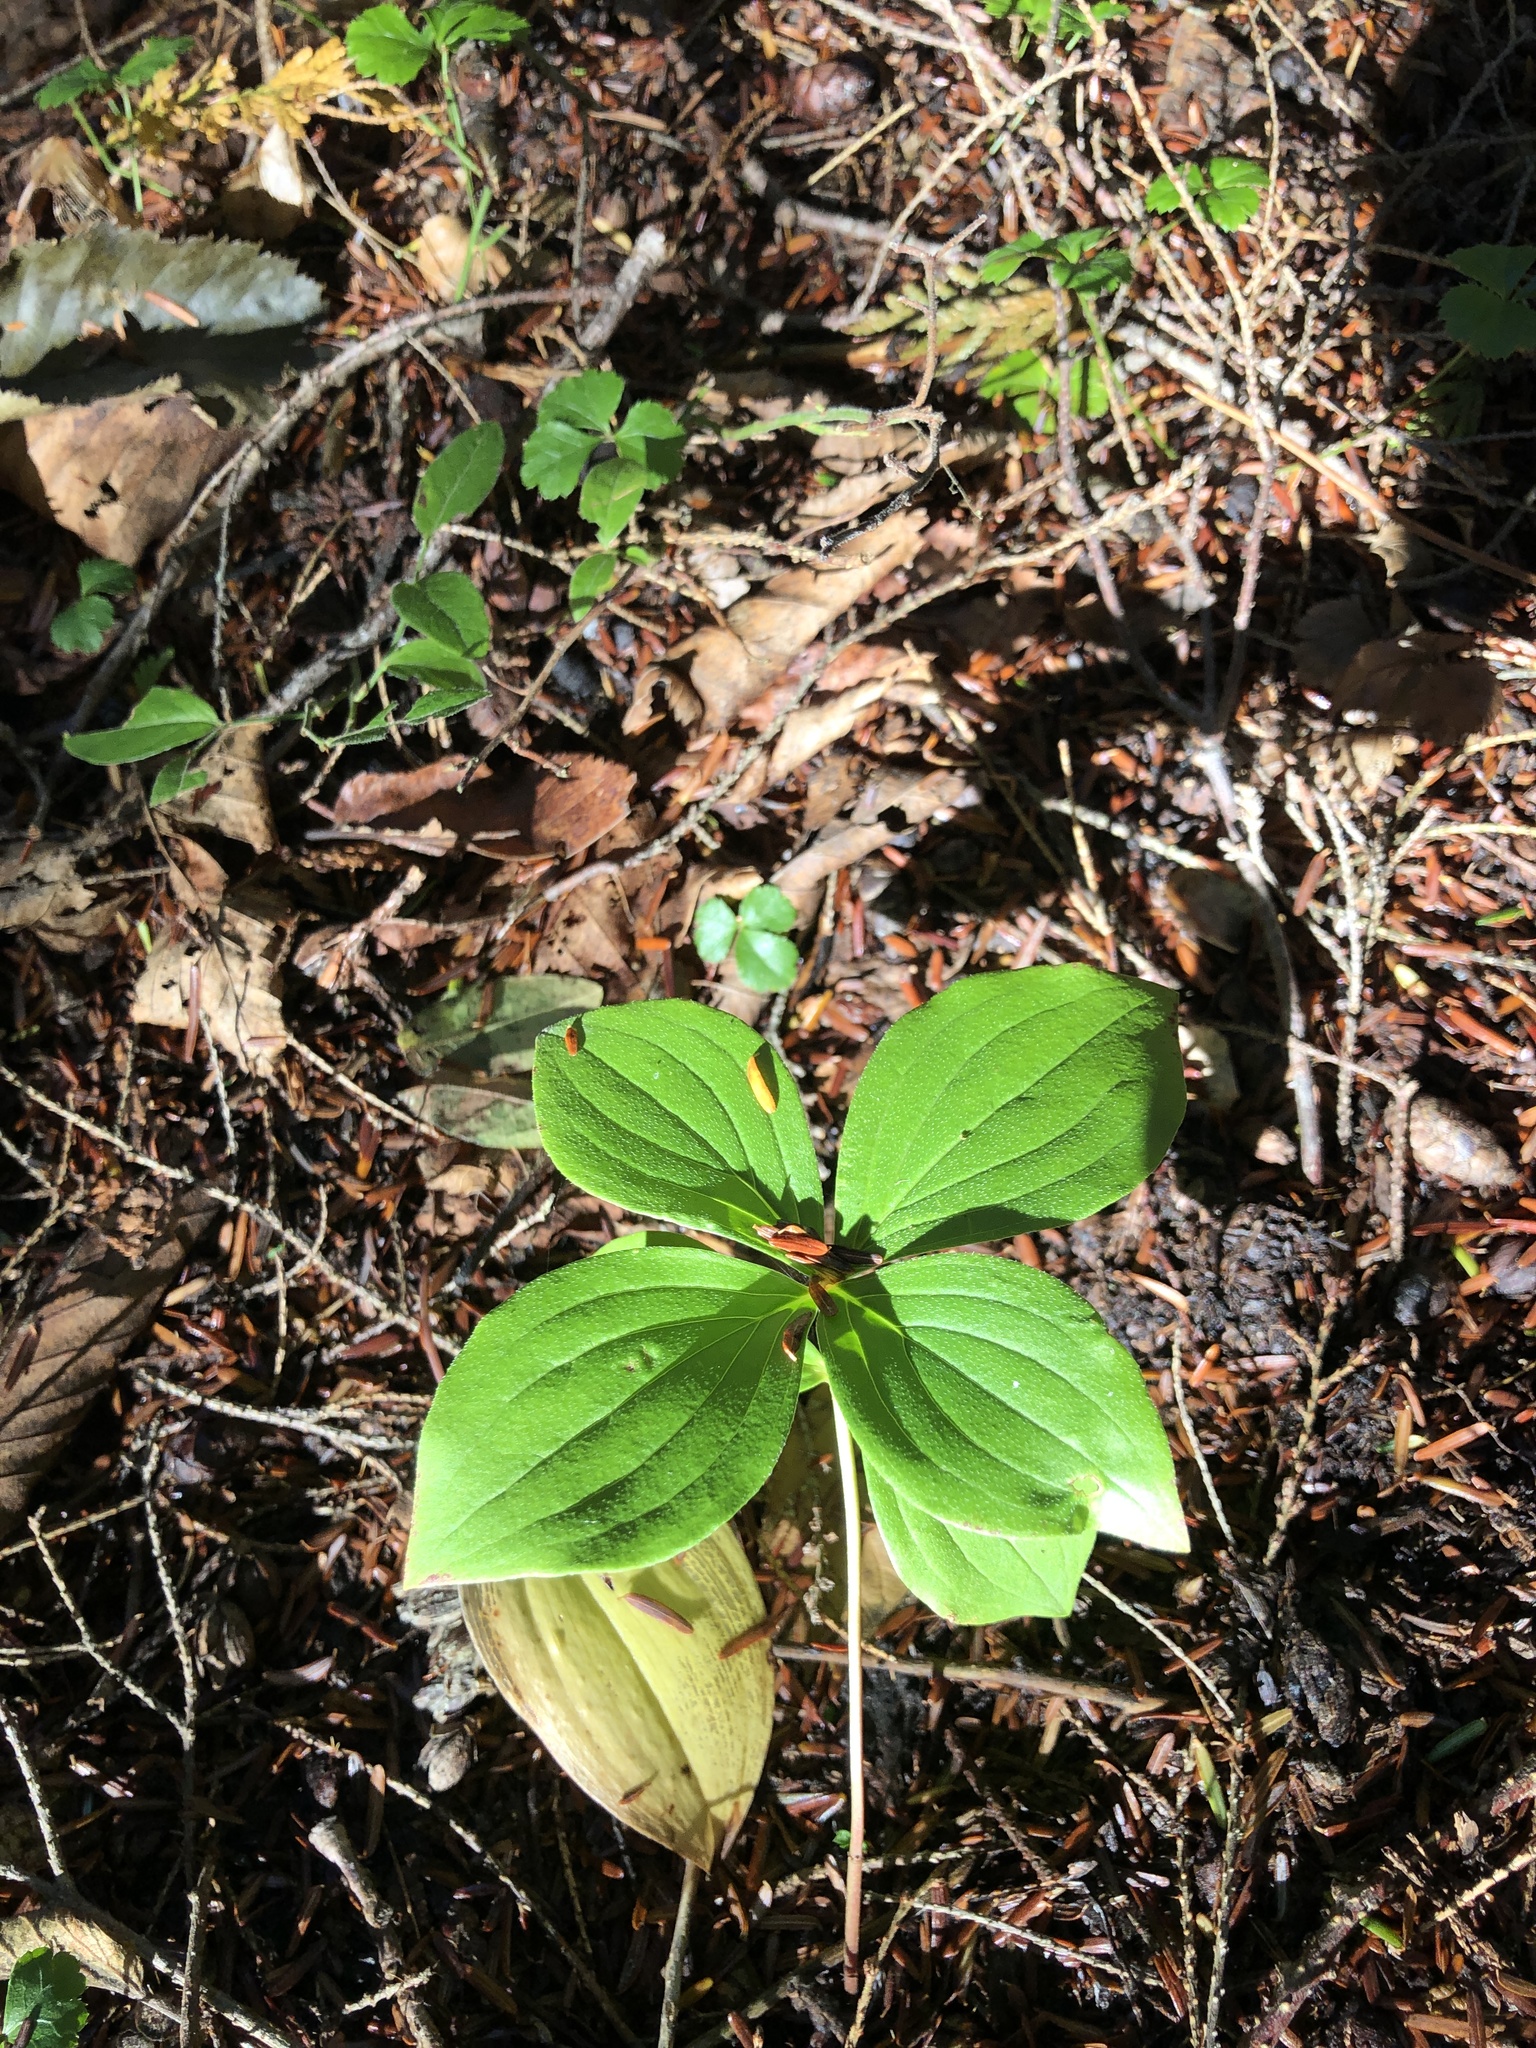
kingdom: Plantae
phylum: Tracheophyta
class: Magnoliopsida
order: Cornales
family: Cornaceae
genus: Cornus
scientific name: Cornus canadensis
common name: Creeping dogwood
